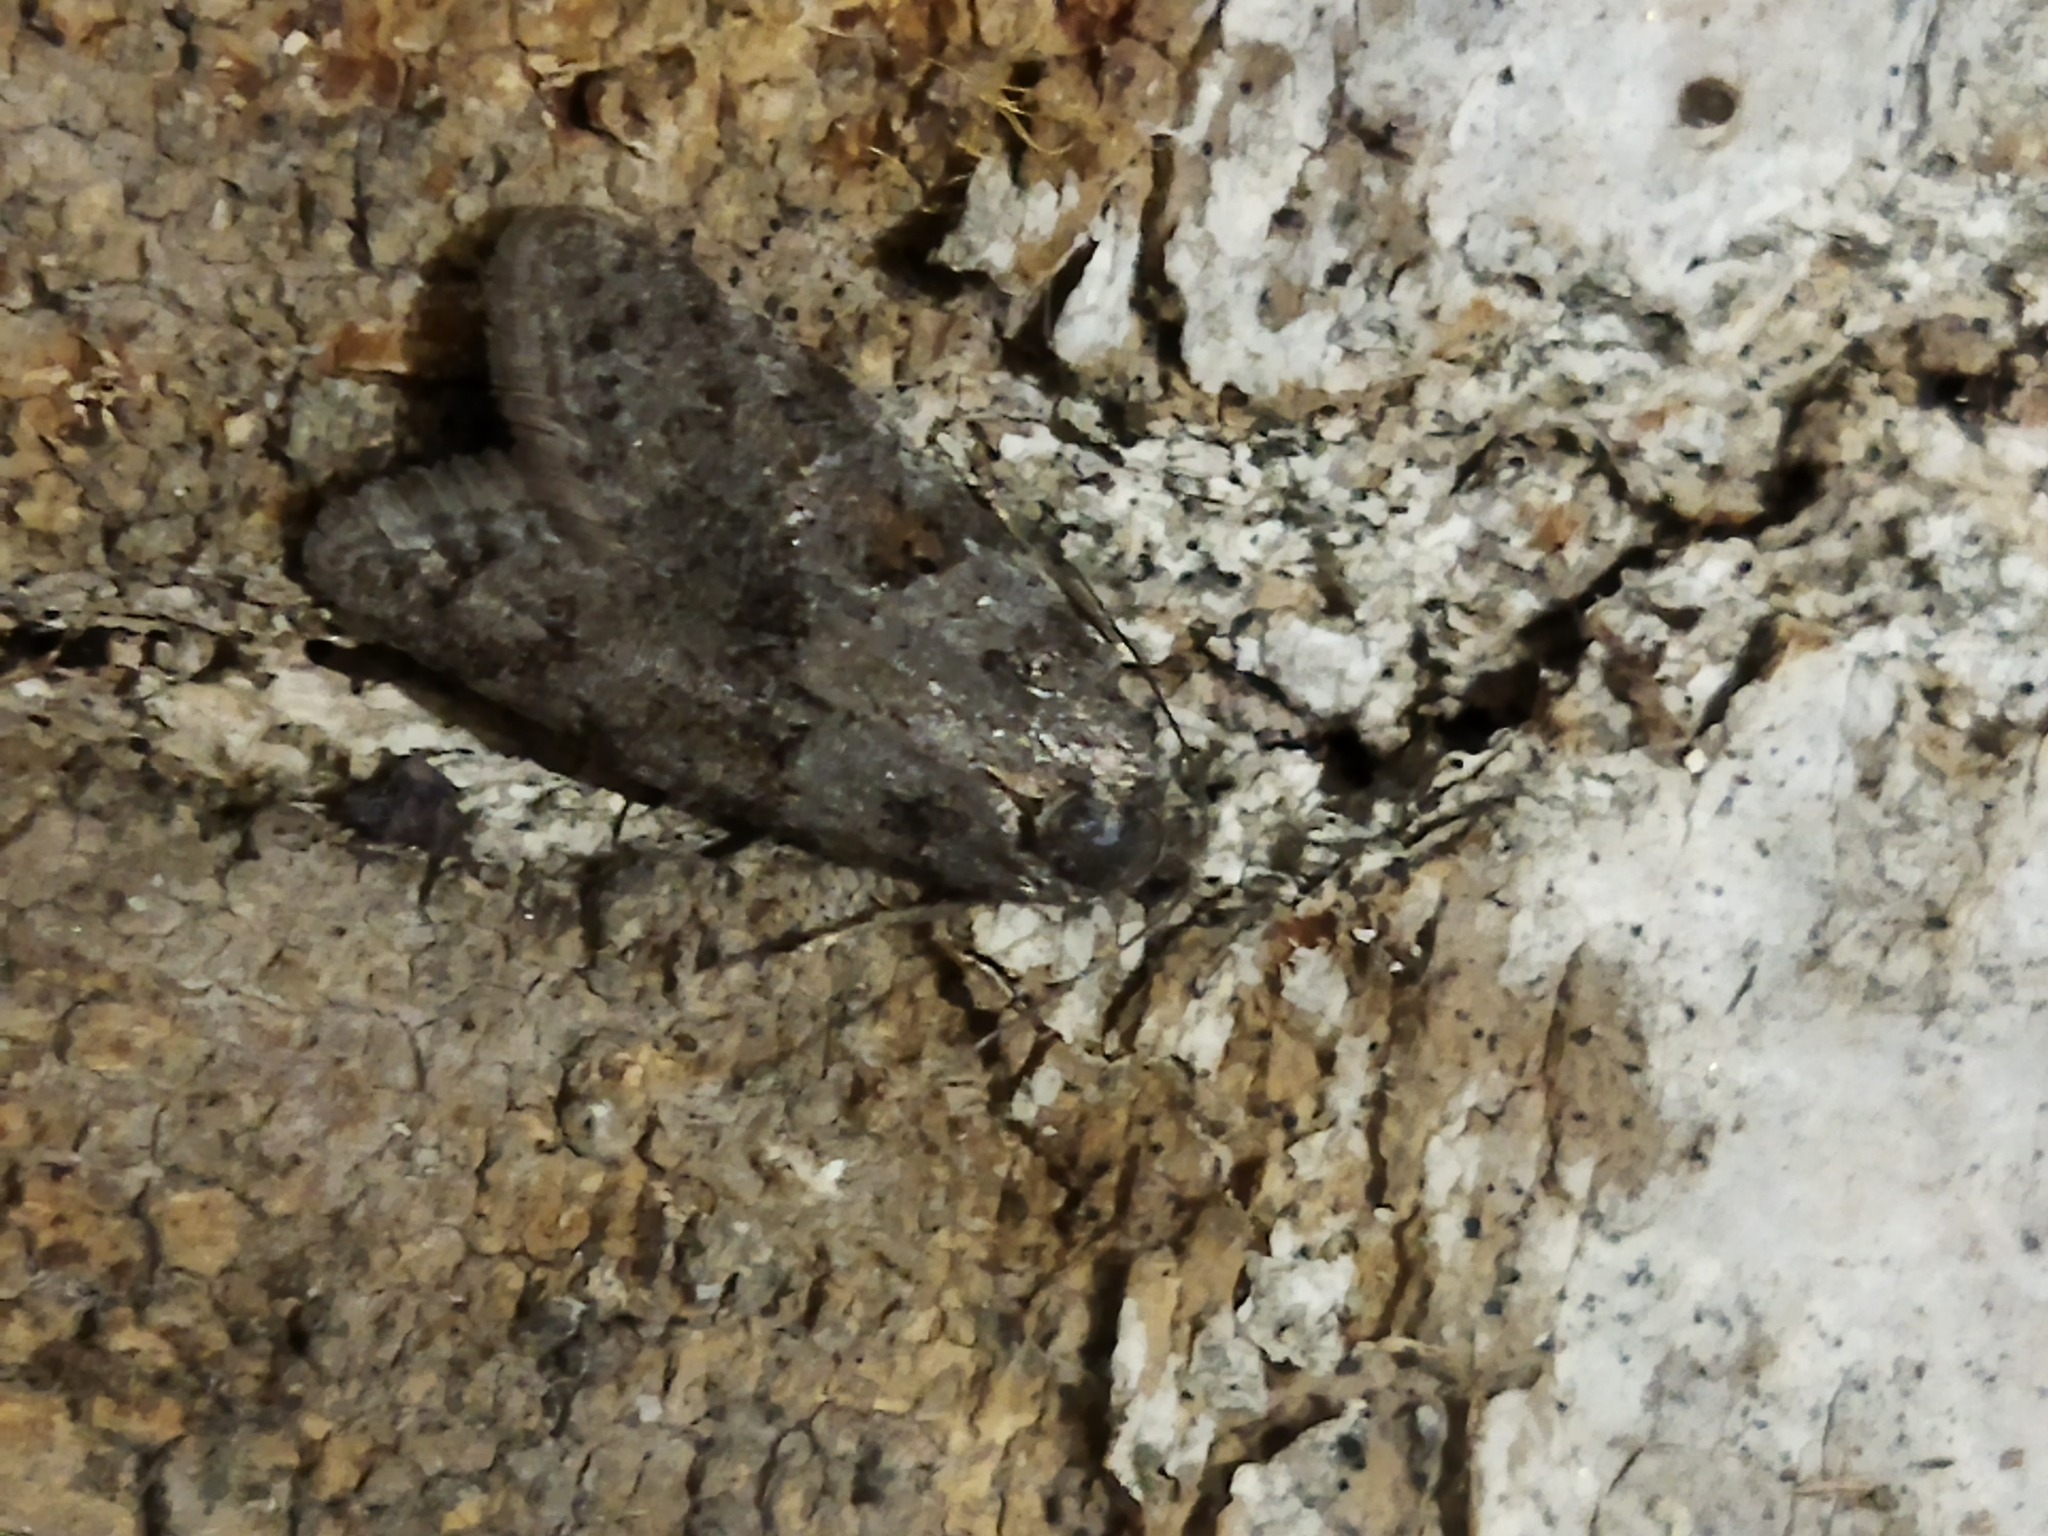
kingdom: Animalia
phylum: Arthropoda
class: Insecta
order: Lepidoptera
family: Tortricidae
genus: Tortricodes
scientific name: Tortricodes alternella
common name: Winter shade
